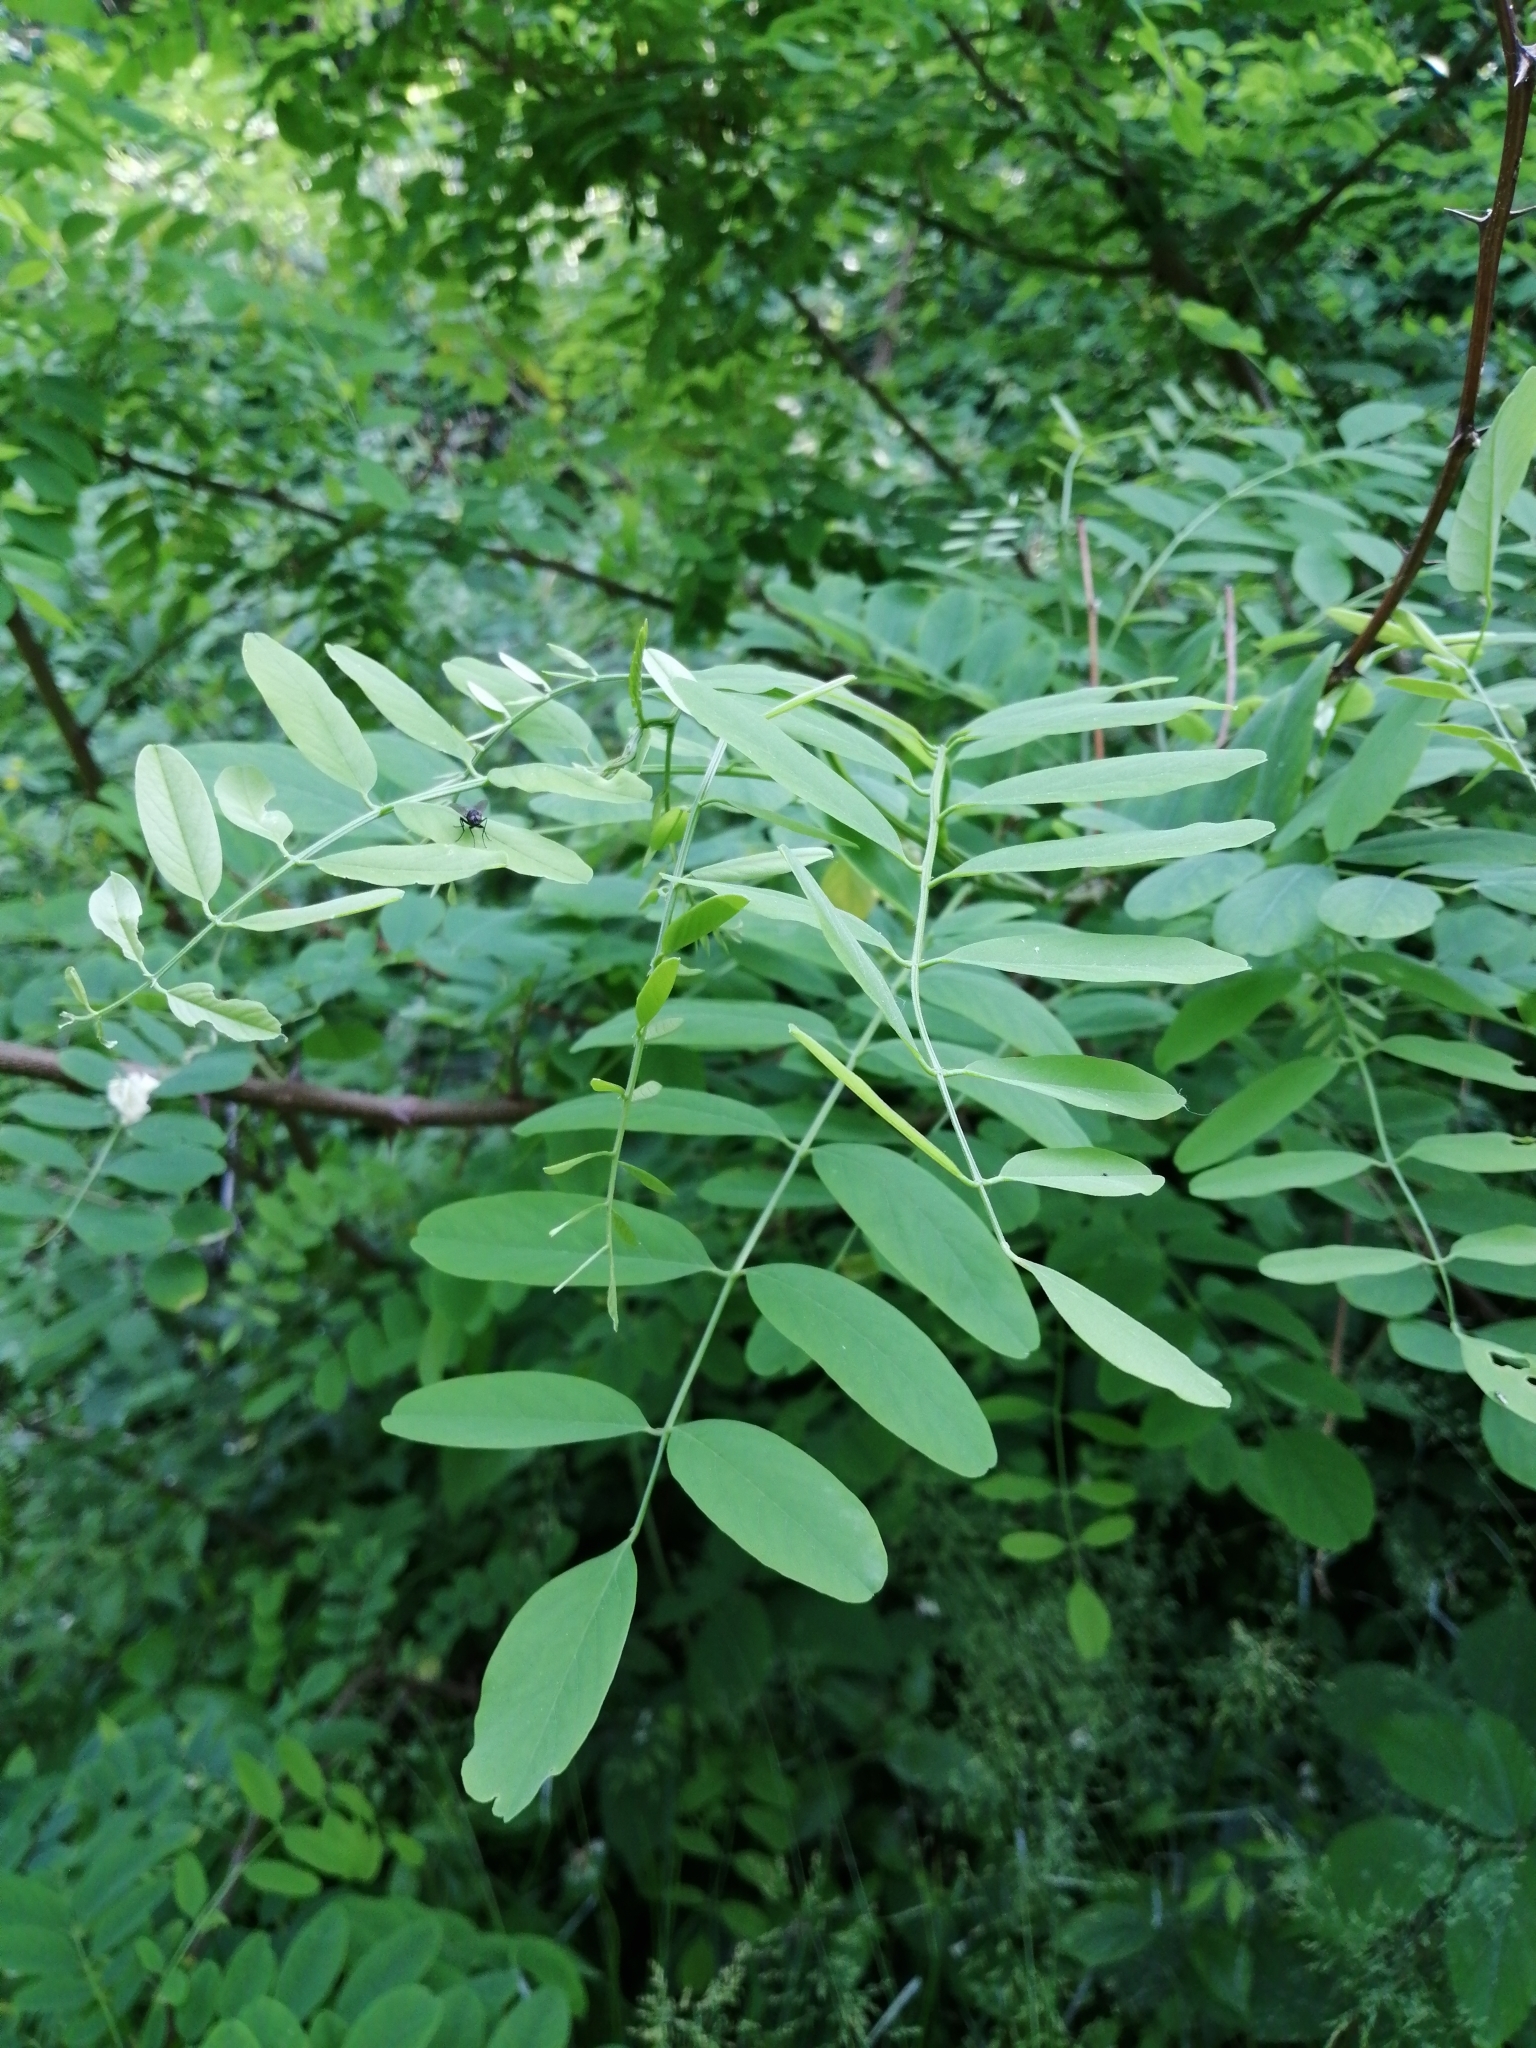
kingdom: Plantae
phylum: Tracheophyta
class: Magnoliopsida
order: Fabales
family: Fabaceae
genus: Robinia
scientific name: Robinia pseudoacacia
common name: Black locust
